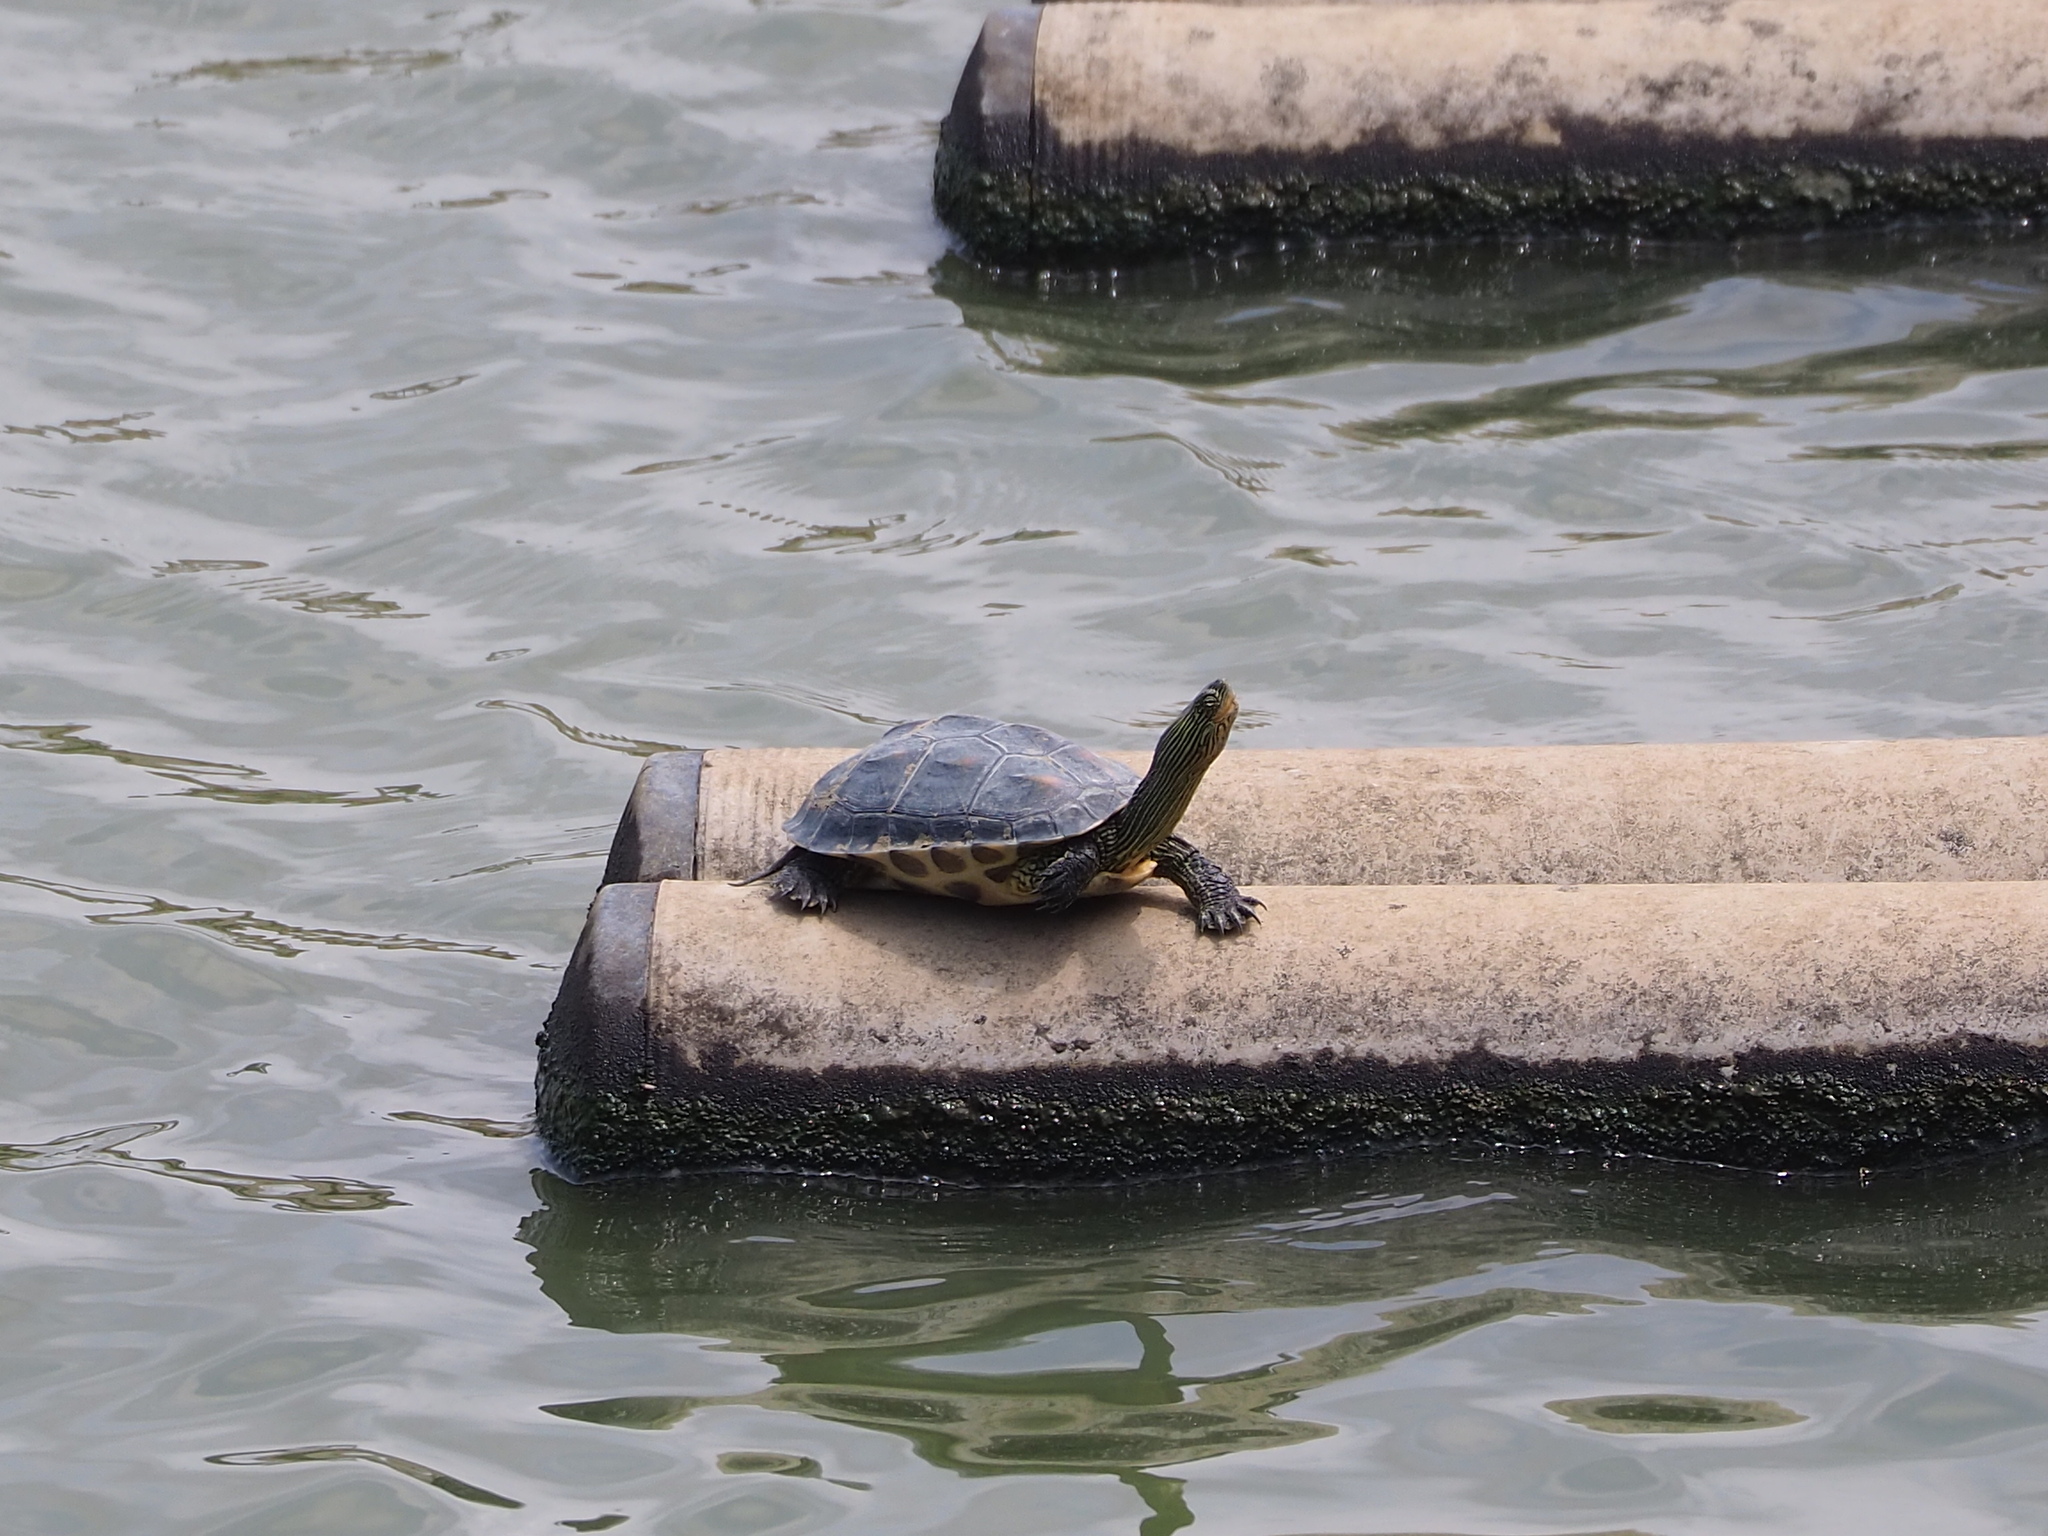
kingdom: Animalia
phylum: Chordata
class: Testudines
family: Geoemydidae
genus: Mauremys
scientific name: Mauremys sinensis
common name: Chinese stripe-necked turtle
